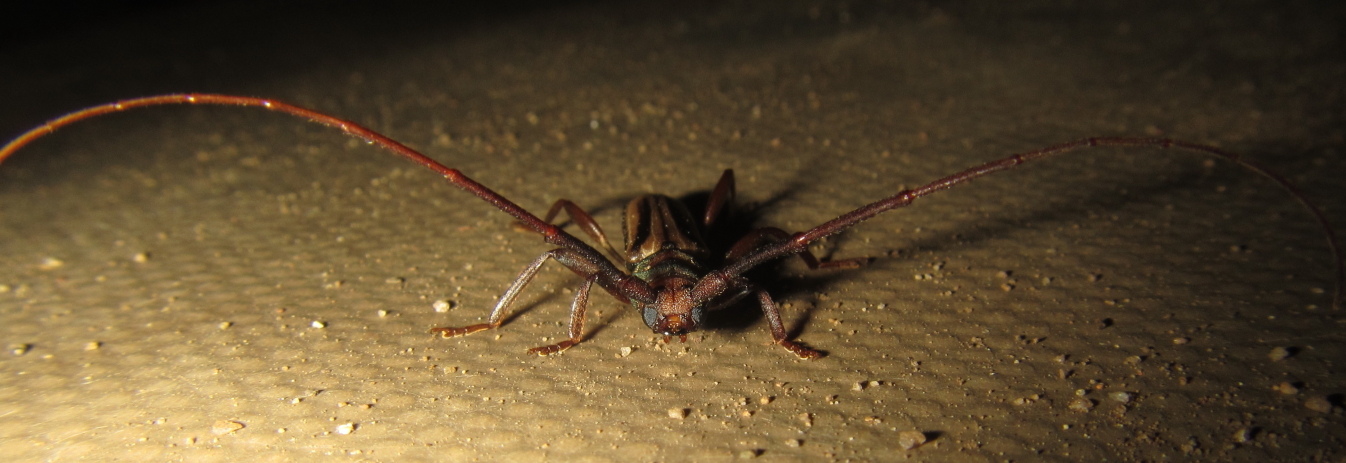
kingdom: Animalia
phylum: Arthropoda
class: Insecta
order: Coleoptera
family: Cerambycidae
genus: Xystrocera
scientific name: Xystrocera dispar
